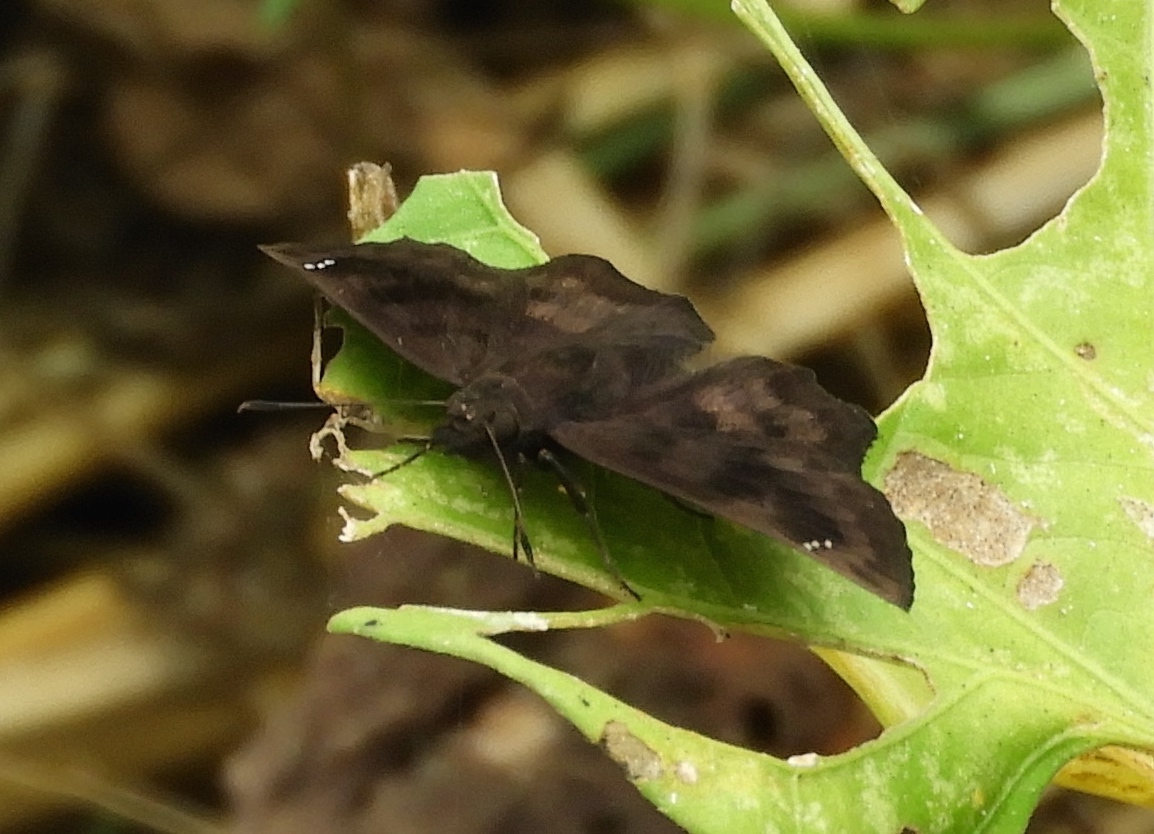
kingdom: Animalia
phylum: Arthropoda
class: Insecta
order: Lepidoptera
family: Hesperiidae
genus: Nisoniades
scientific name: Nisoniades
